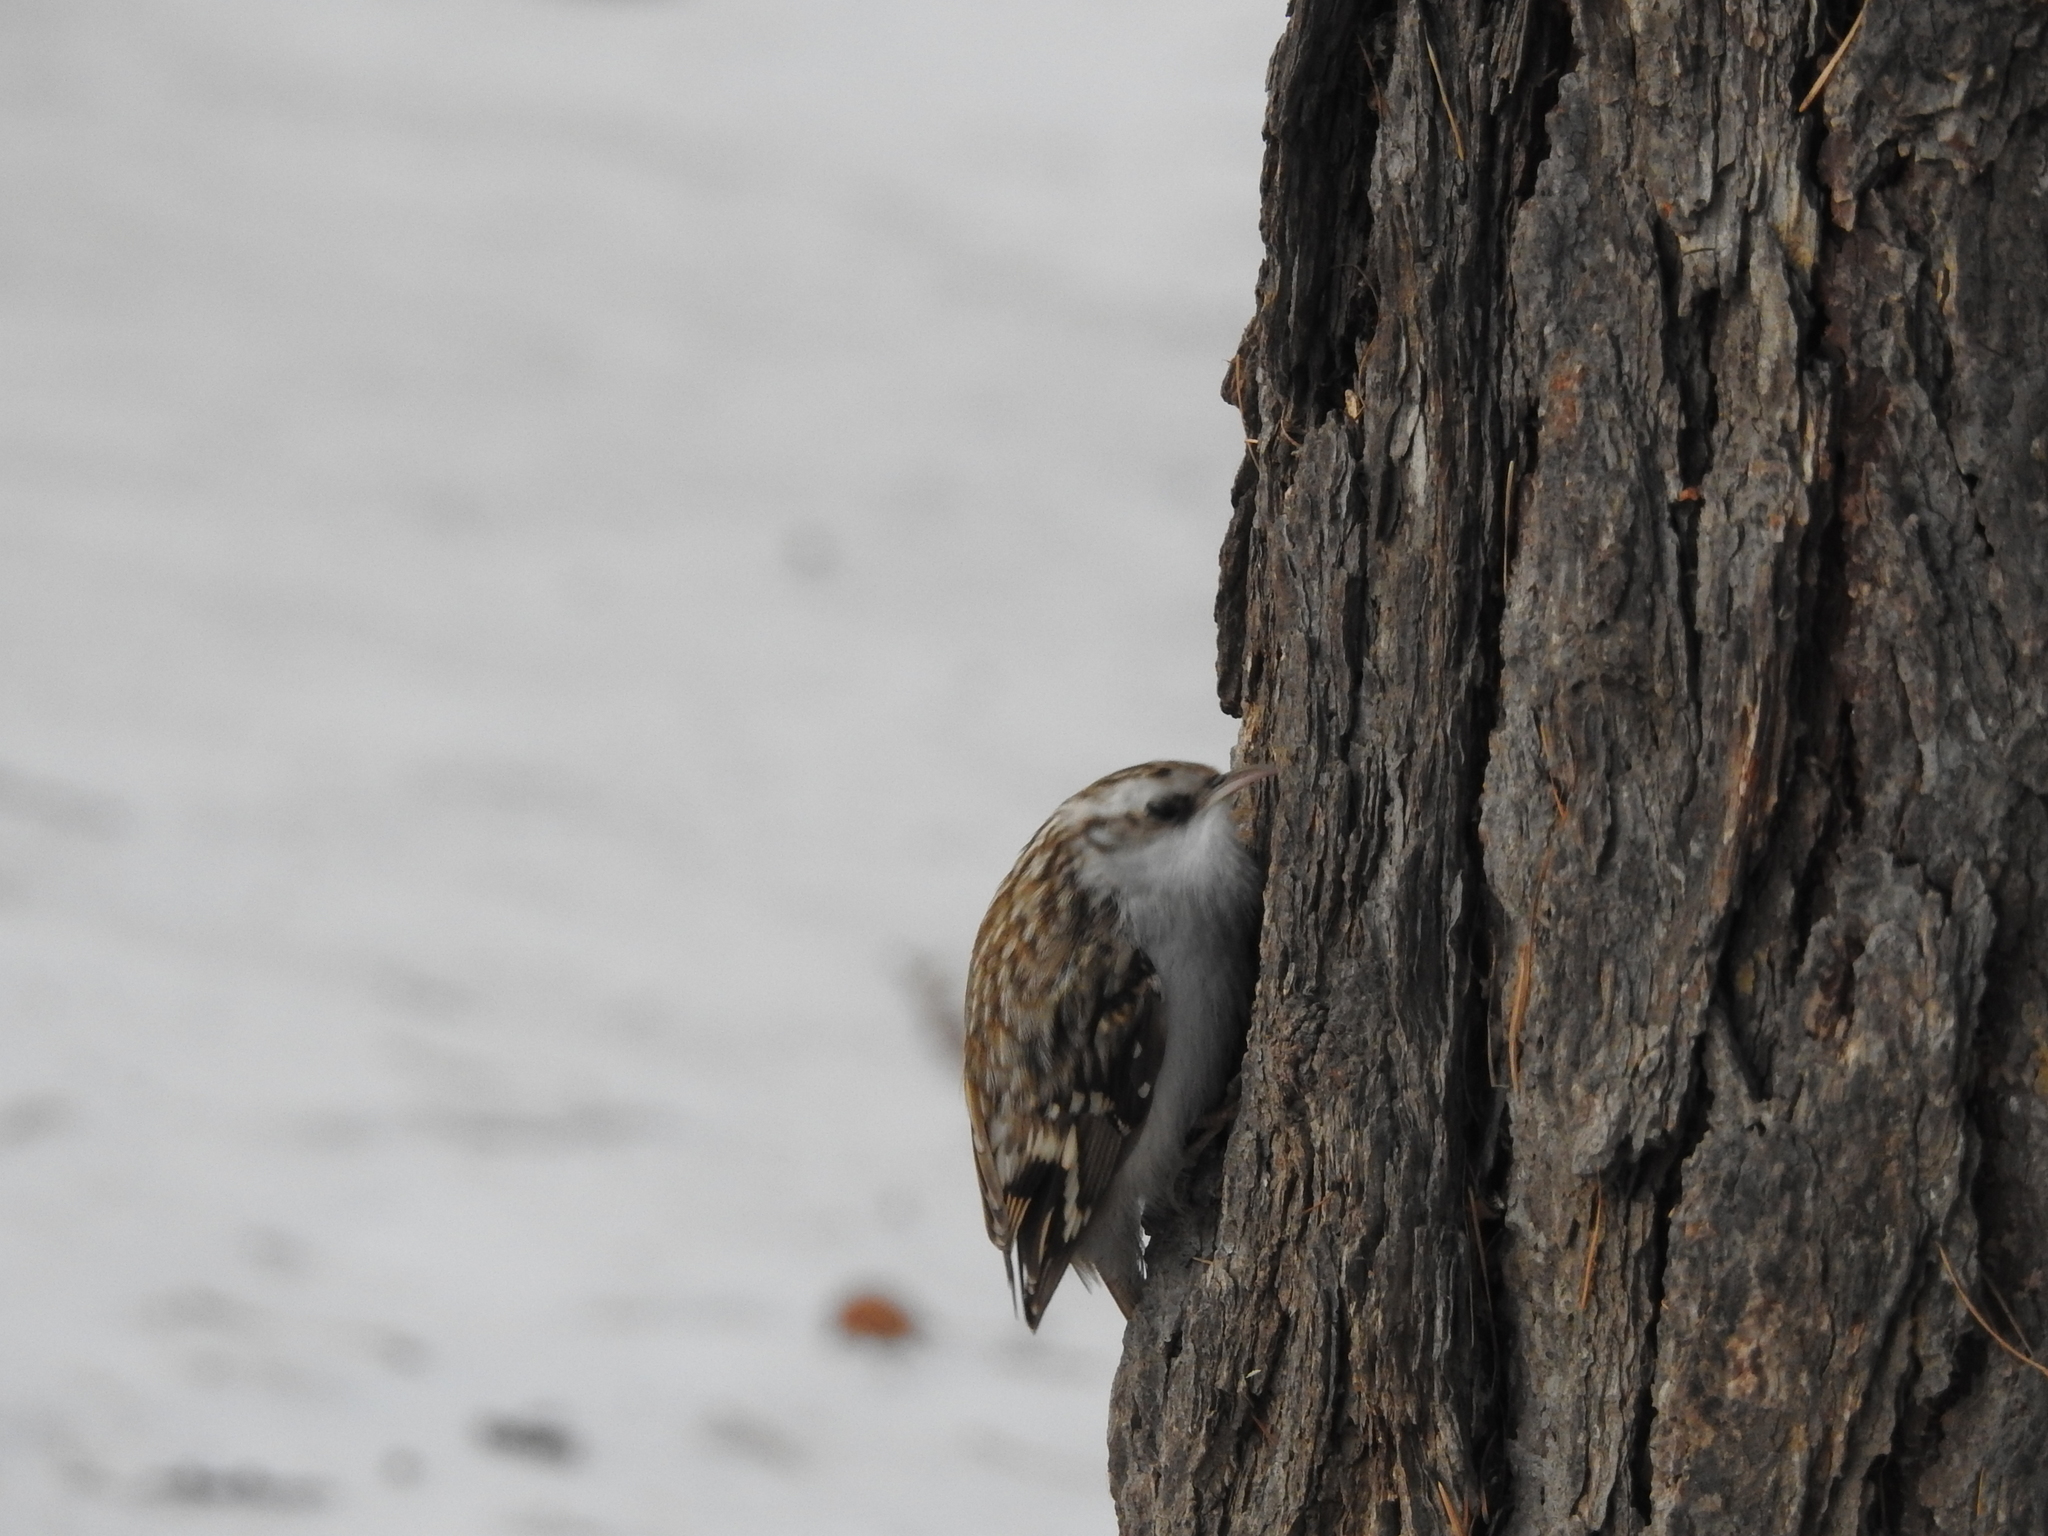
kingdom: Animalia
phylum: Chordata
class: Aves
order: Passeriformes
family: Certhiidae
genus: Certhia
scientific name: Certhia familiaris
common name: Eurasian treecreeper
